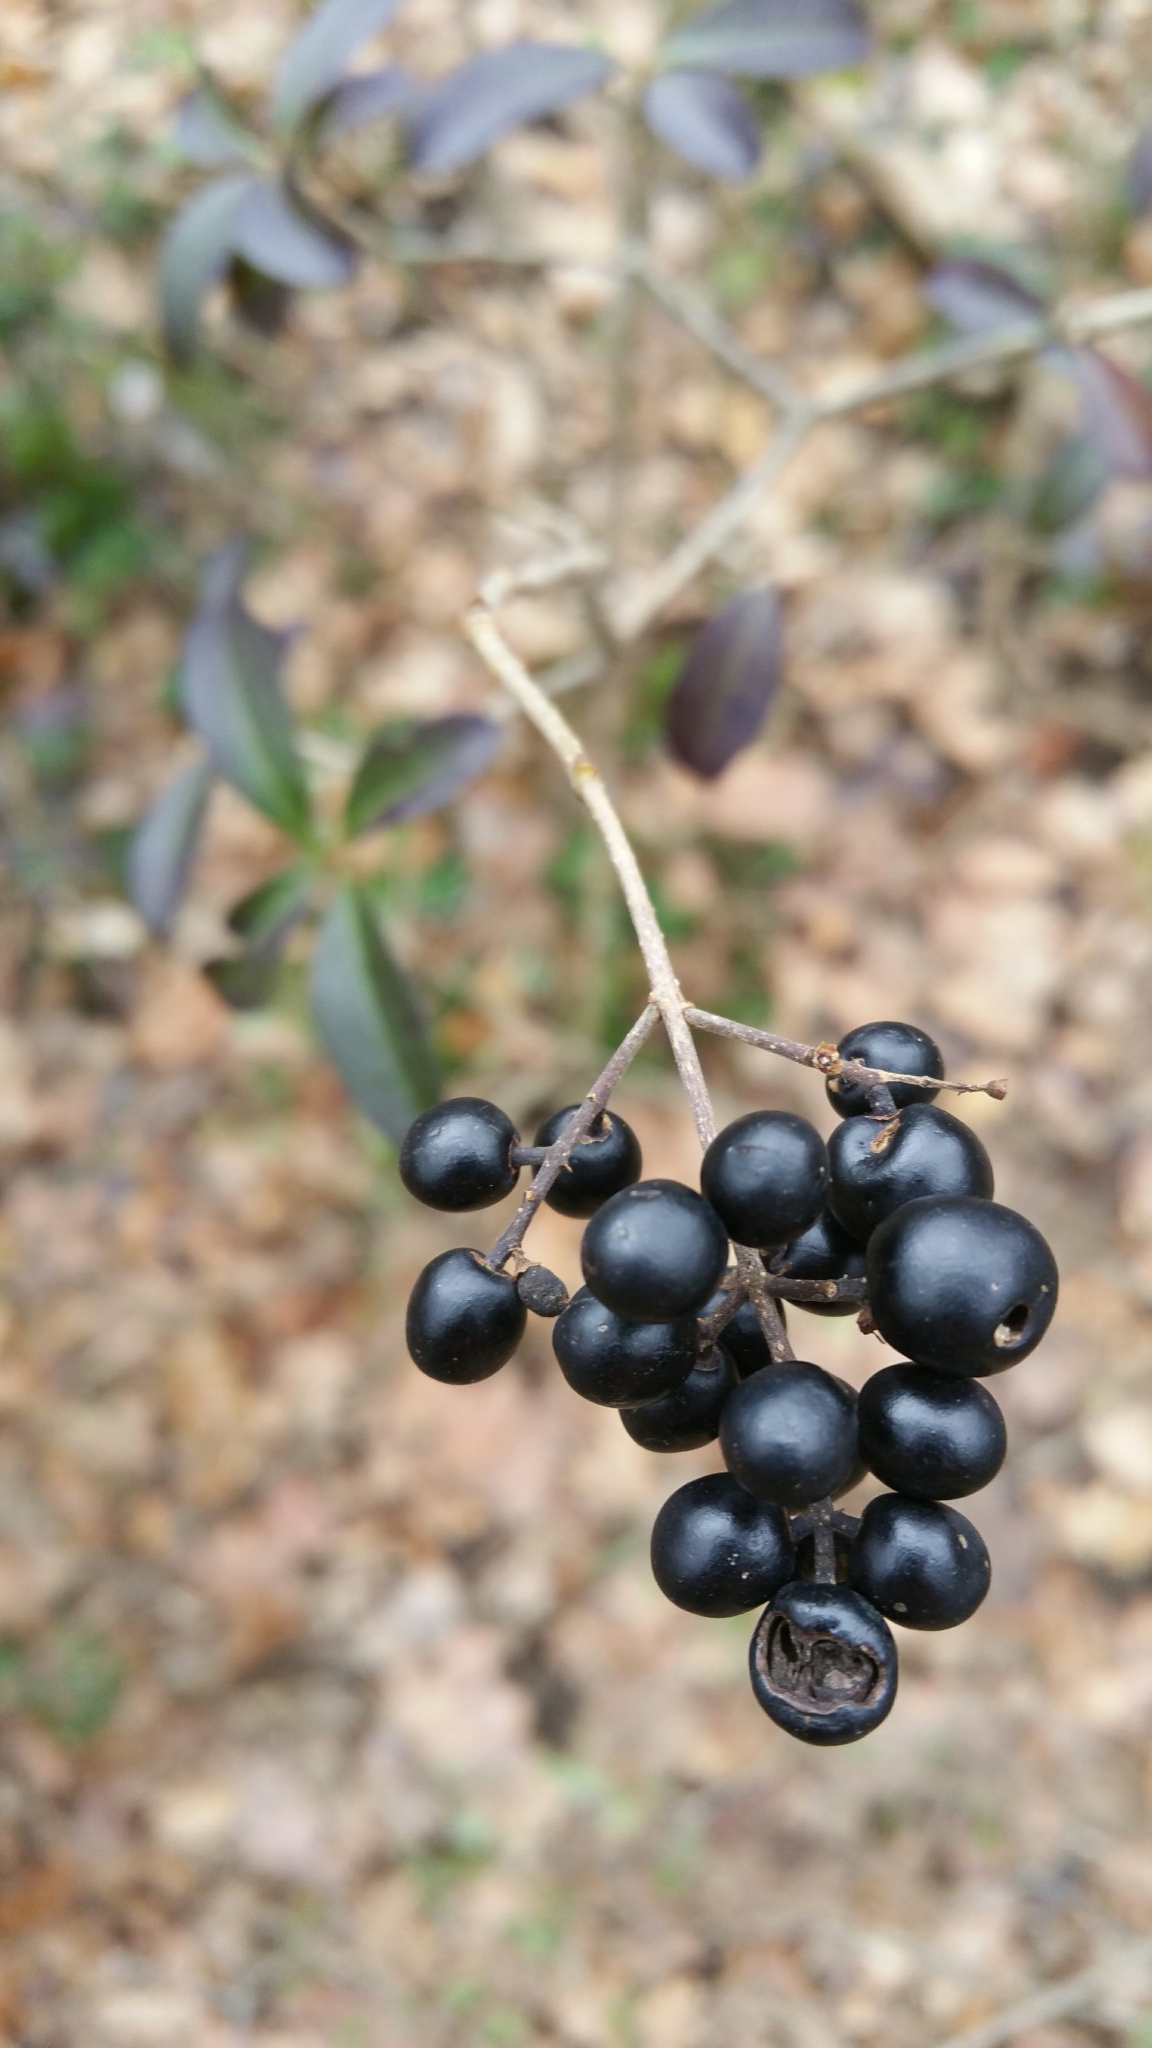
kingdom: Plantae
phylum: Tracheophyta
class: Magnoliopsida
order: Lamiales
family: Oleaceae
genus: Ligustrum
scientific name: Ligustrum vulgare
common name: Wild privet
